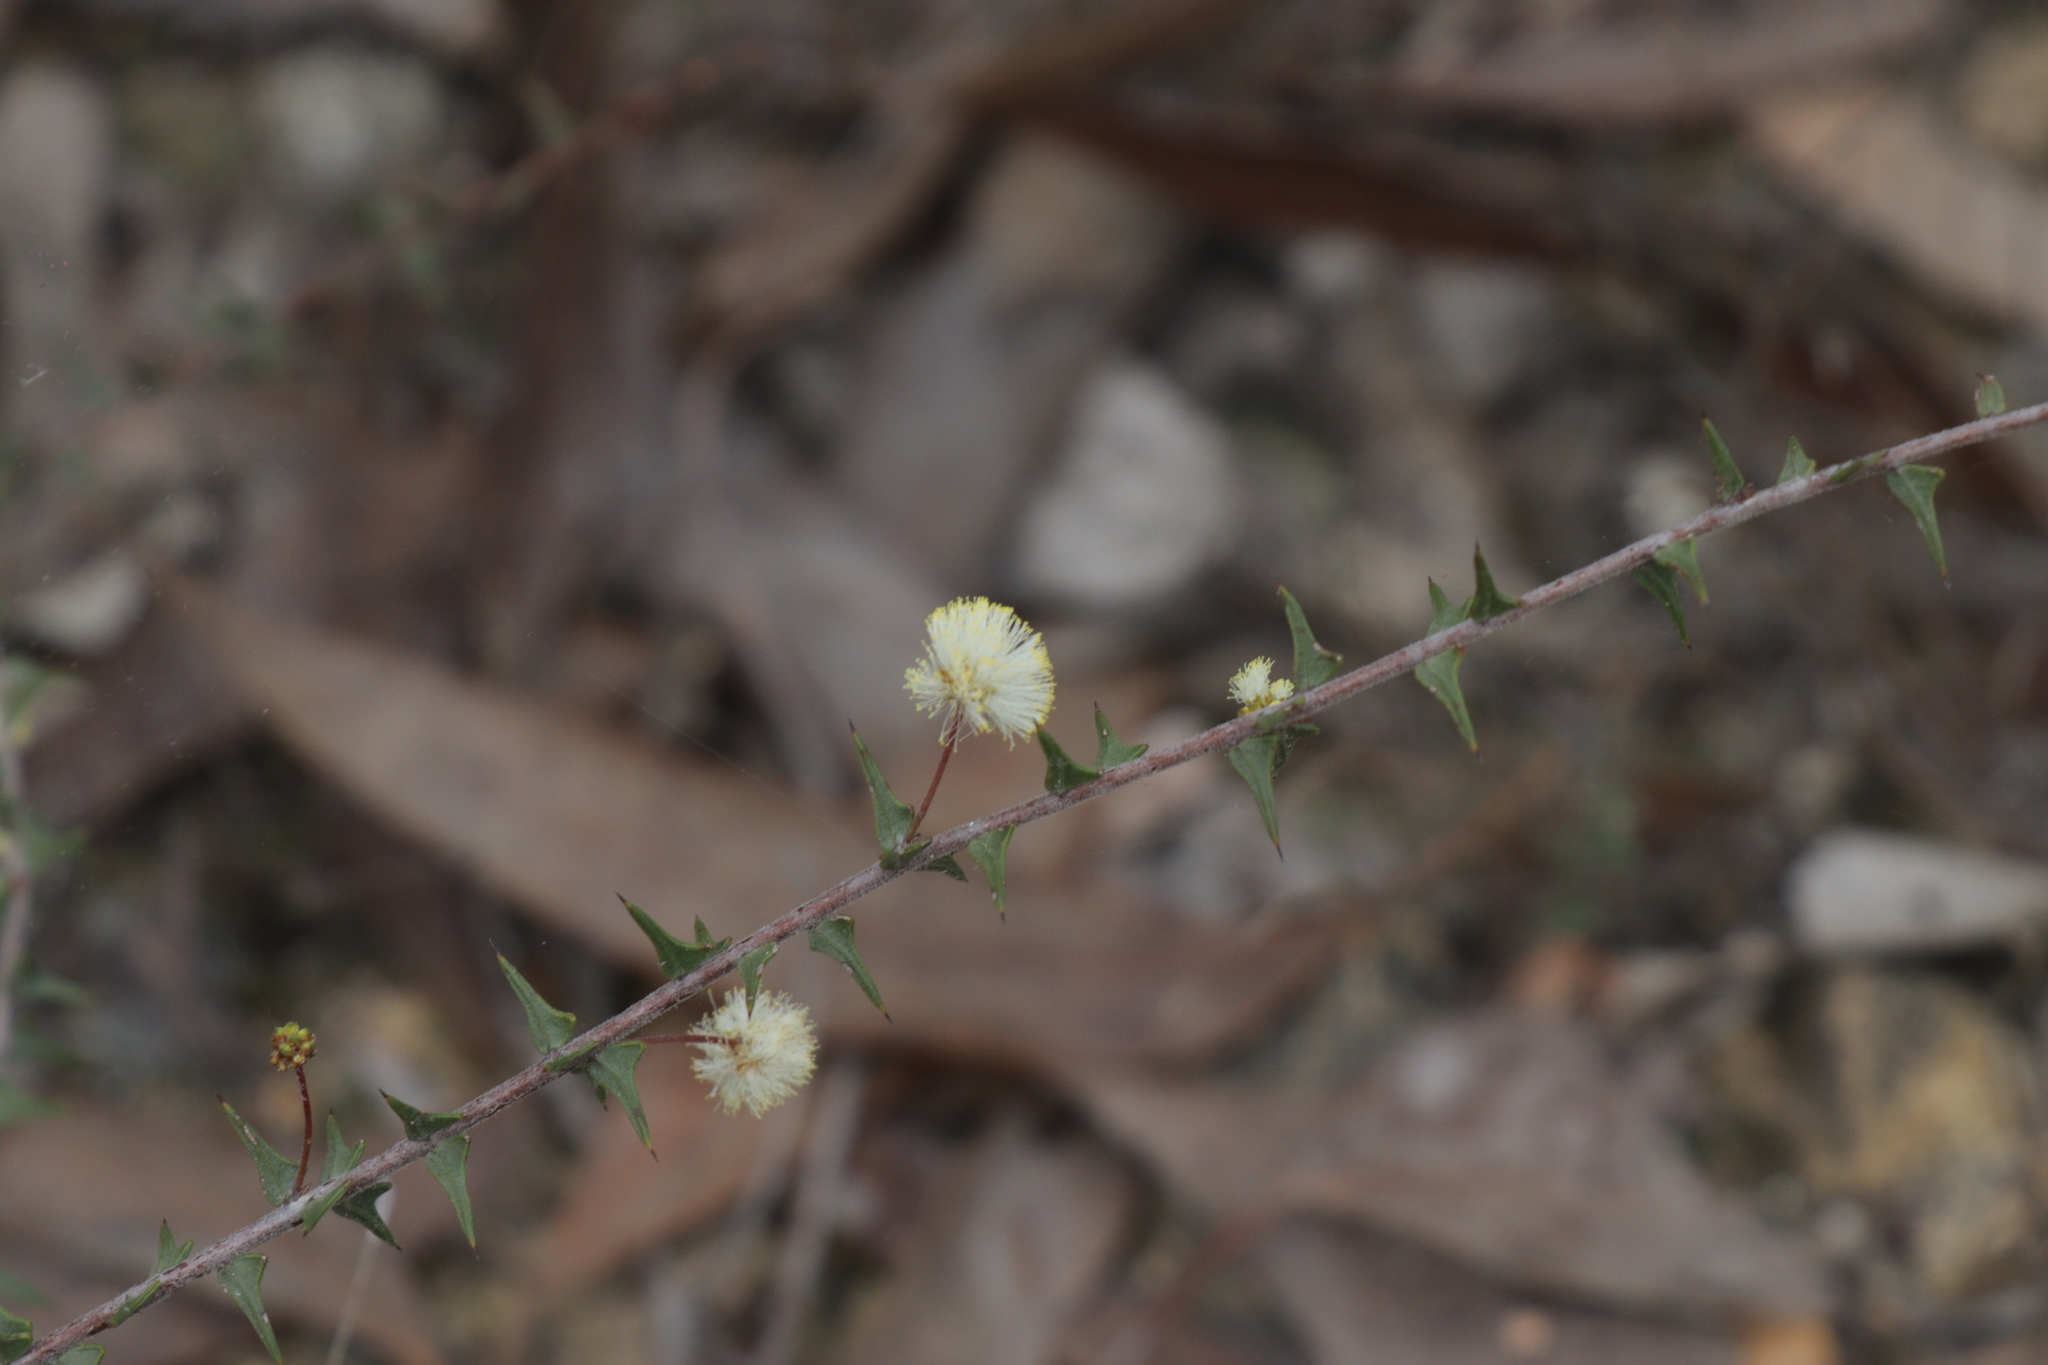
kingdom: Plantae
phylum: Tracheophyta
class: Magnoliopsida
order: Fabales
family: Fabaceae
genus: Acacia
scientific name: Acacia gunnii
